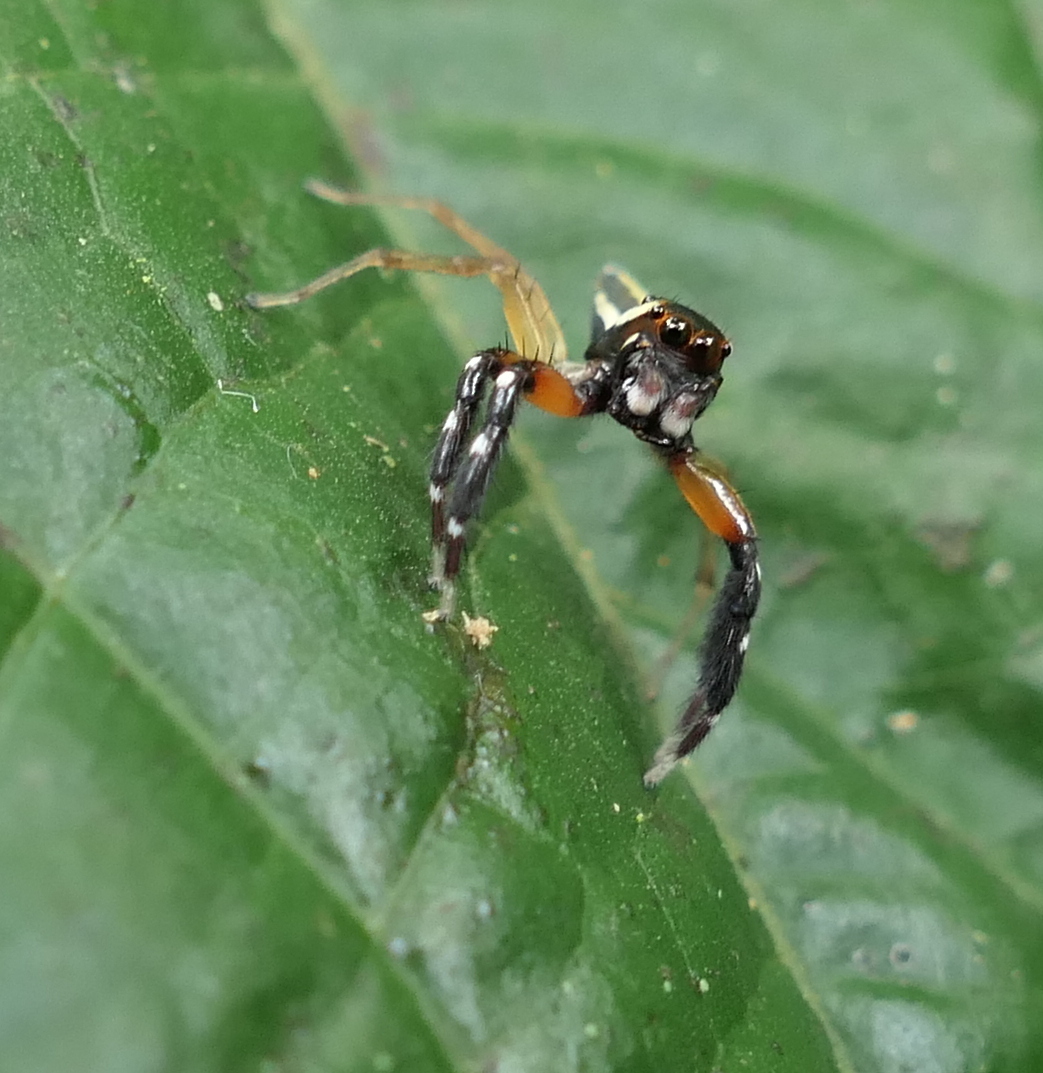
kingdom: Animalia
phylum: Arthropoda
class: Arachnida
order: Araneae
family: Salticidae
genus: Chira
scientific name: Chira trivittata
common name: Jumping spiders
